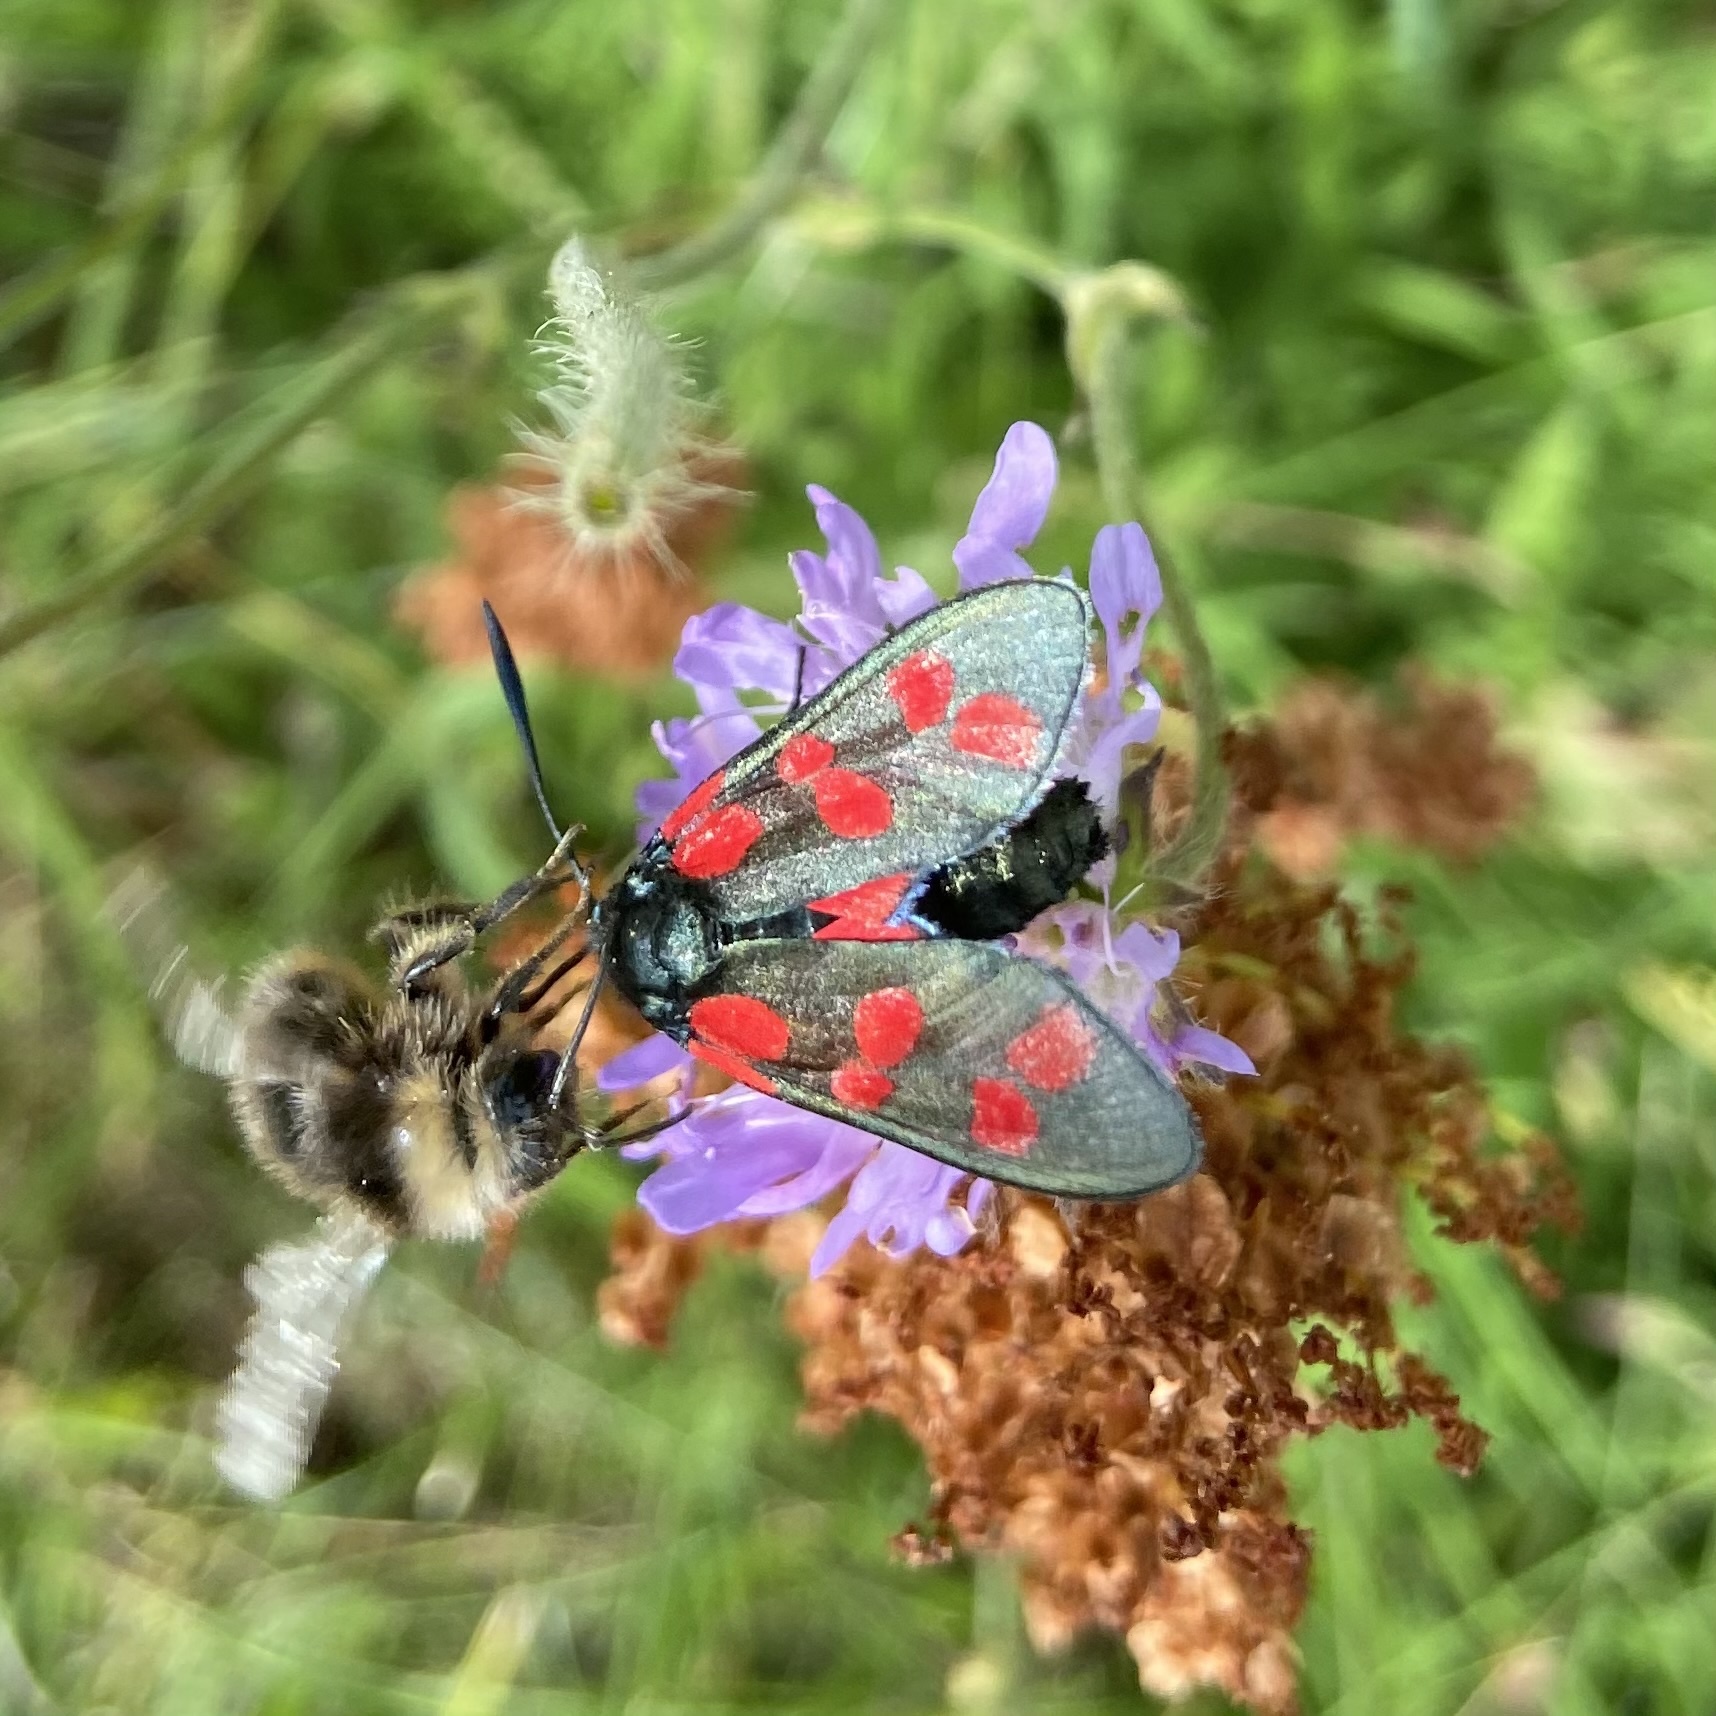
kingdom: Animalia
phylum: Arthropoda
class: Insecta
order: Lepidoptera
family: Zygaenidae
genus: Zygaena
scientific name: Zygaena filipendulae
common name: Six-spot burnet
